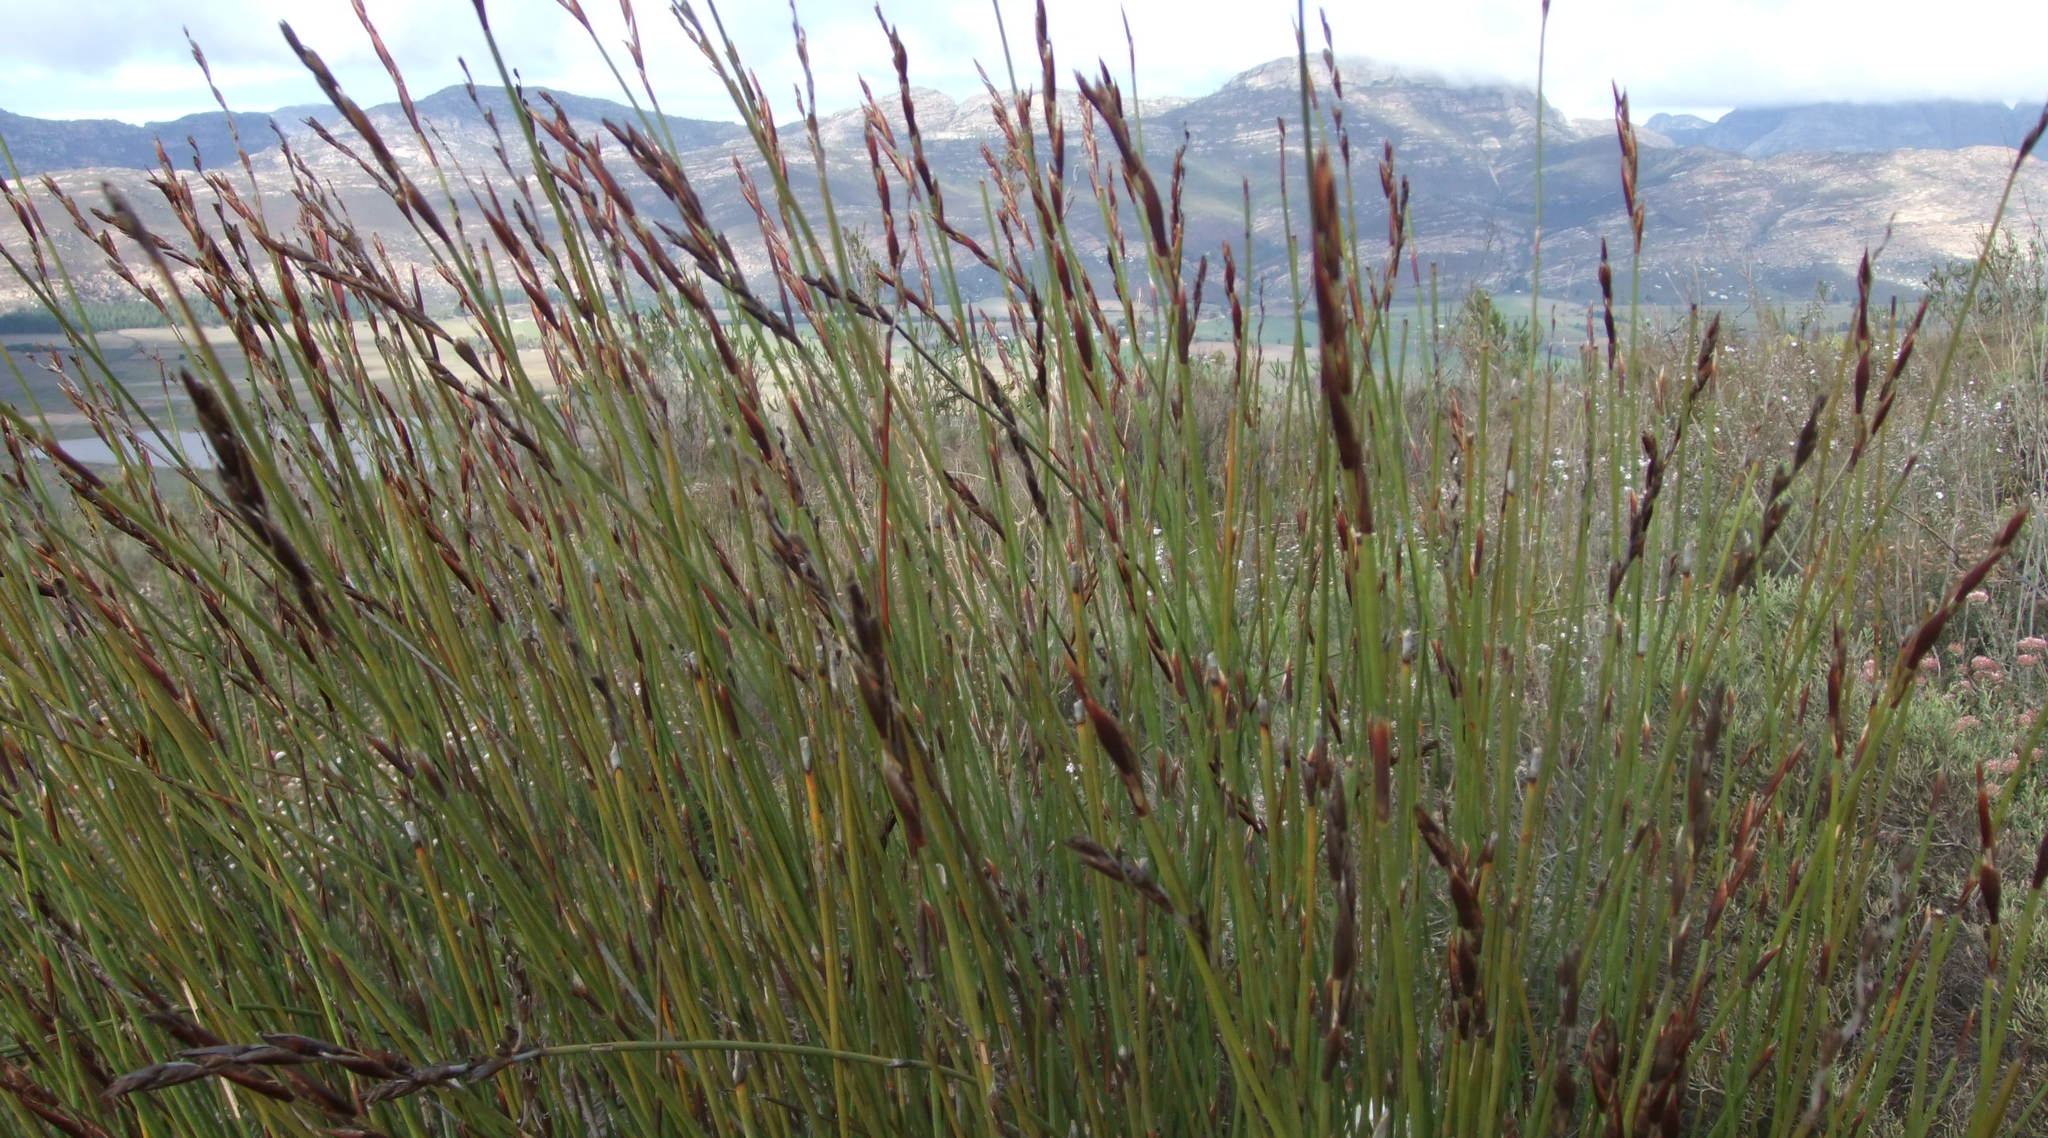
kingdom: Plantae
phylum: Tracheophyta
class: Liliopsida
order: Poales
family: Restionaceae
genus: Cannomois
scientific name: Cannomois scirpoides
